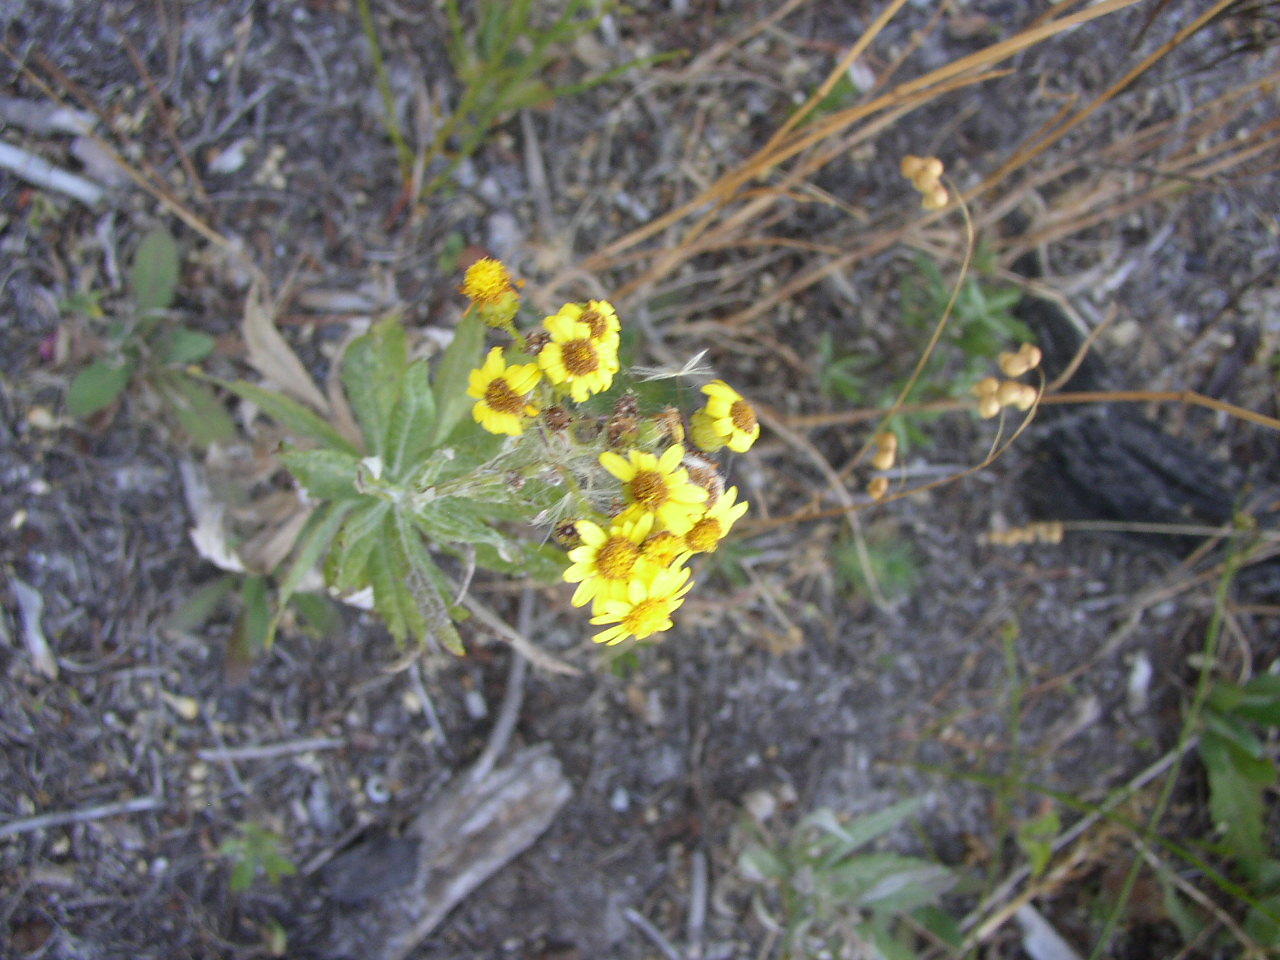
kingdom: Plantae
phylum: Tracheophyta
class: Magnoliopsida
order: Asterales
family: Asteraceae
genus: Senecio
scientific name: Senecio pterophorus
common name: Shoddy ragwort
